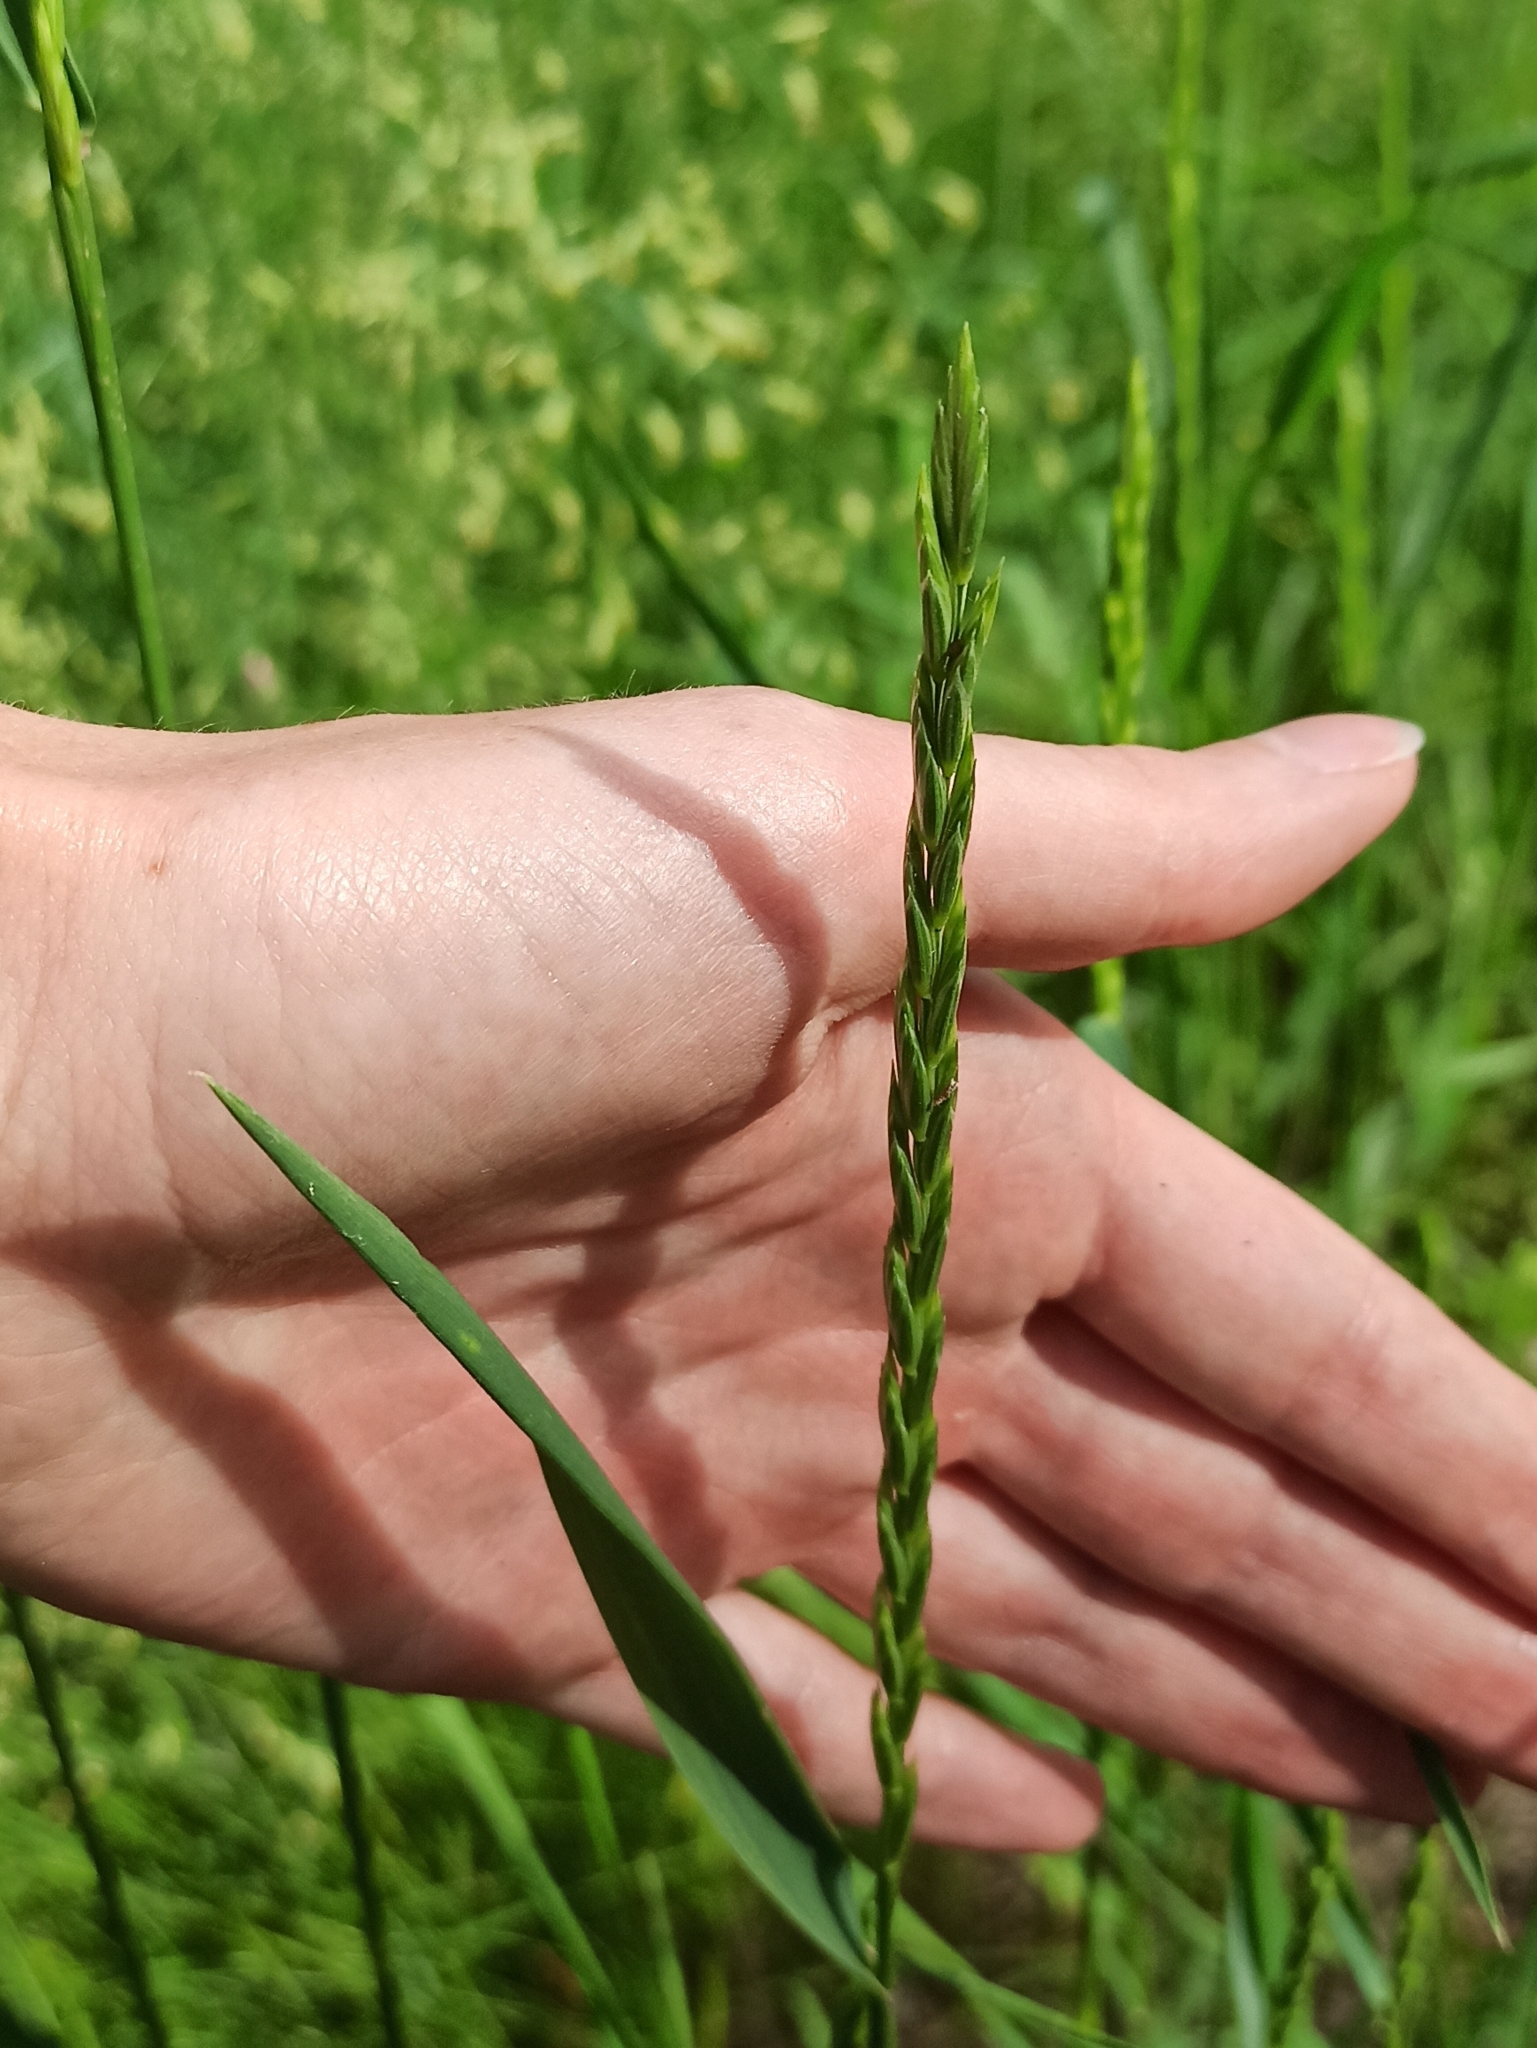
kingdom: Plantae
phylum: Tracheophyta
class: Liliopsida
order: Poales
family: Poaceae
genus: Elymus
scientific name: Elymus repens
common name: Quackgrass
